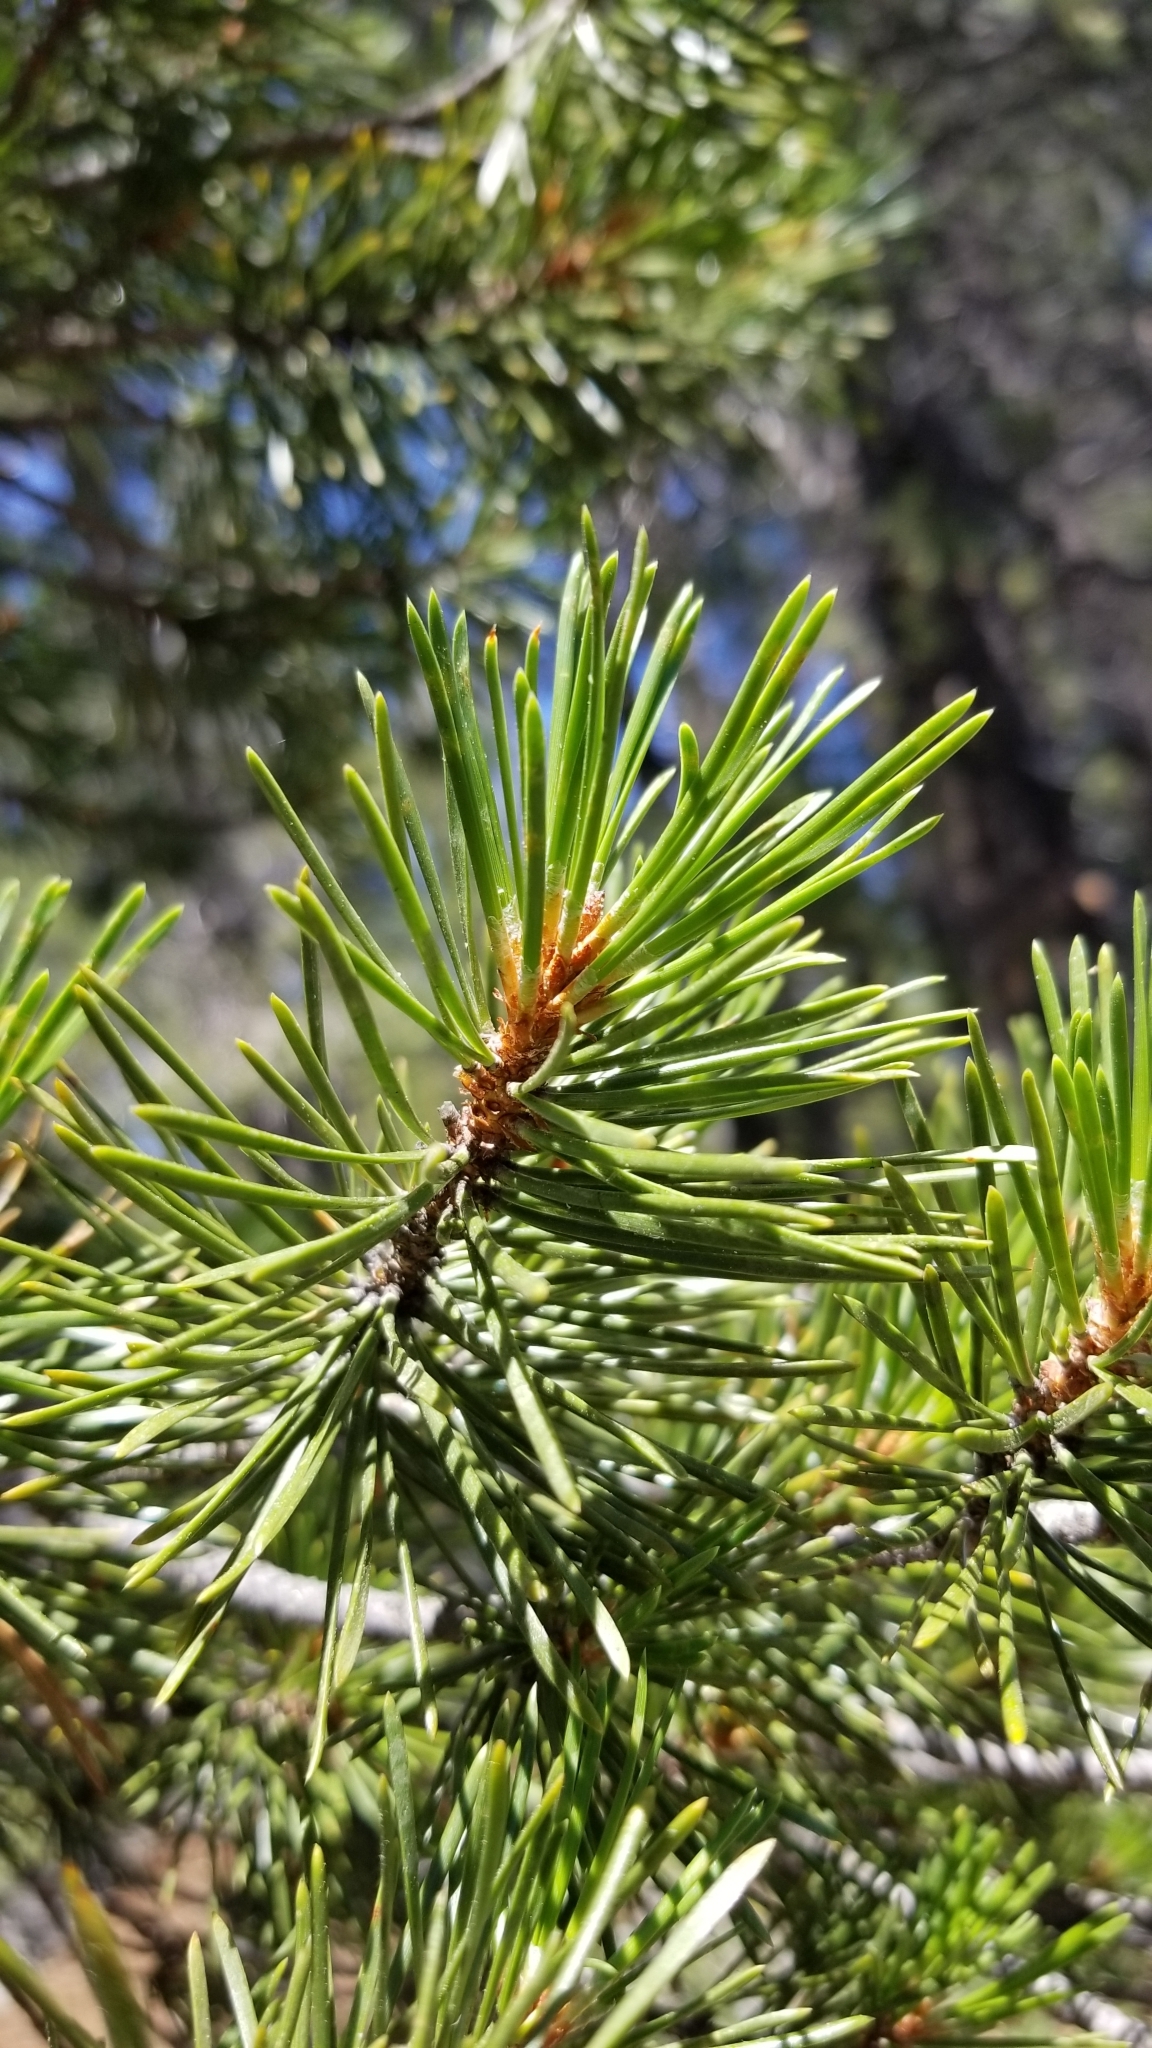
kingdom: Plantae
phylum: Tracheophyta
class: Pinopsida
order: Pinales
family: Pinaceae
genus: Pinus
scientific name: Pinus contorta
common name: Lodgepole pine
